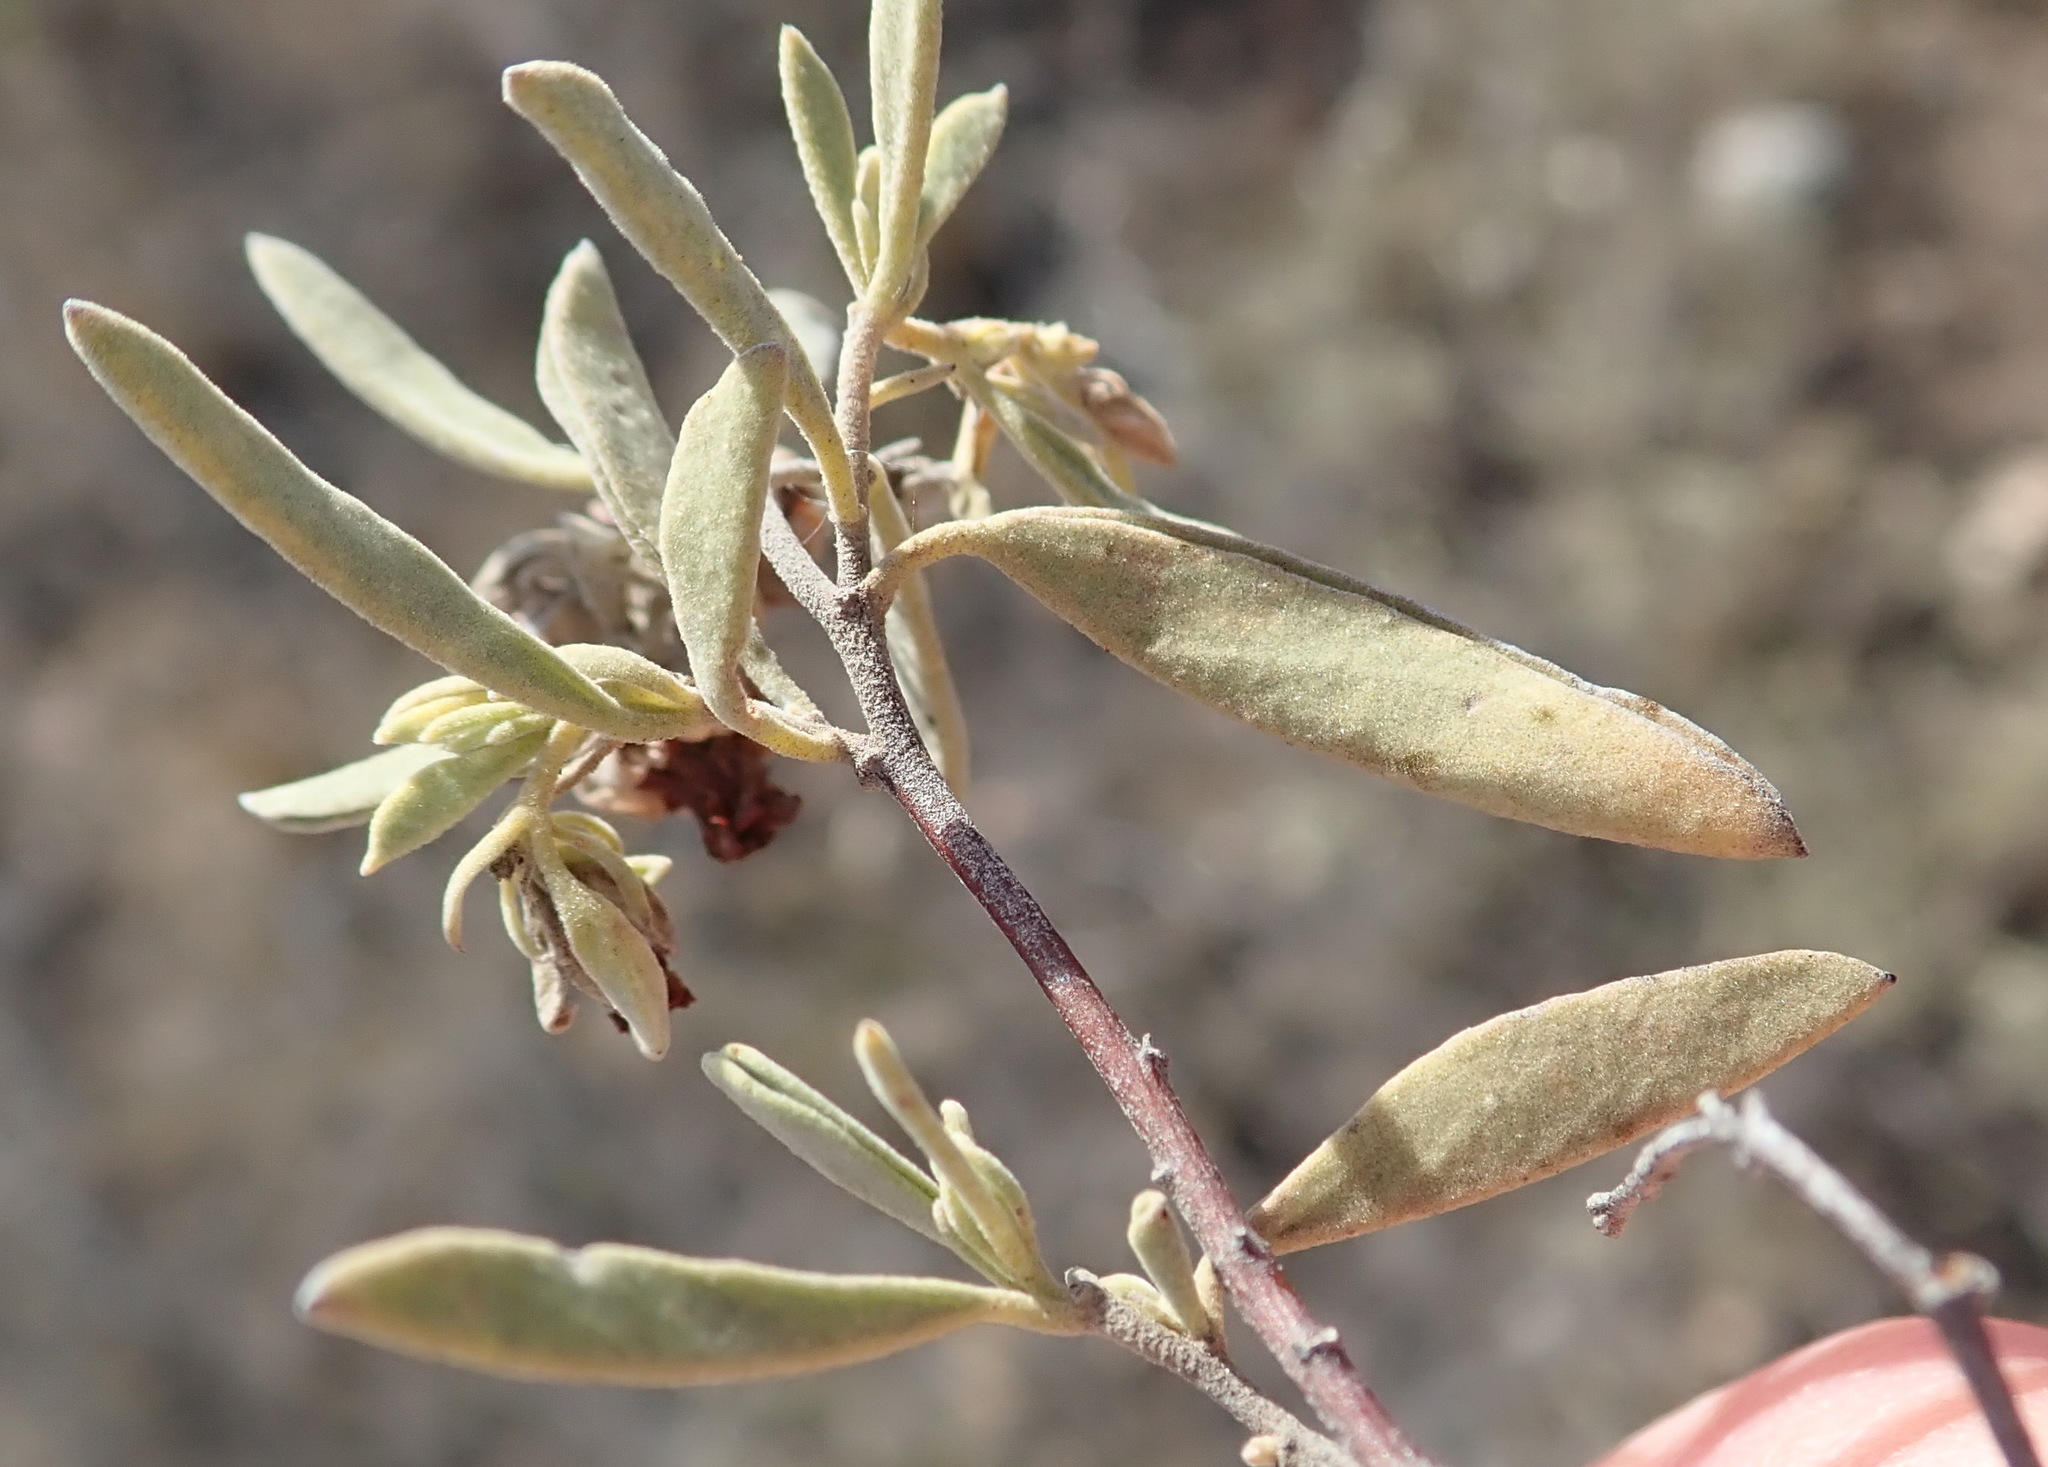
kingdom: Plantae
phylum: Tracheophyta
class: Magnoliopsida
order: Malvales
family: Malvaceae
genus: Hermannia
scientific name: Hermannia lavandulifolia
